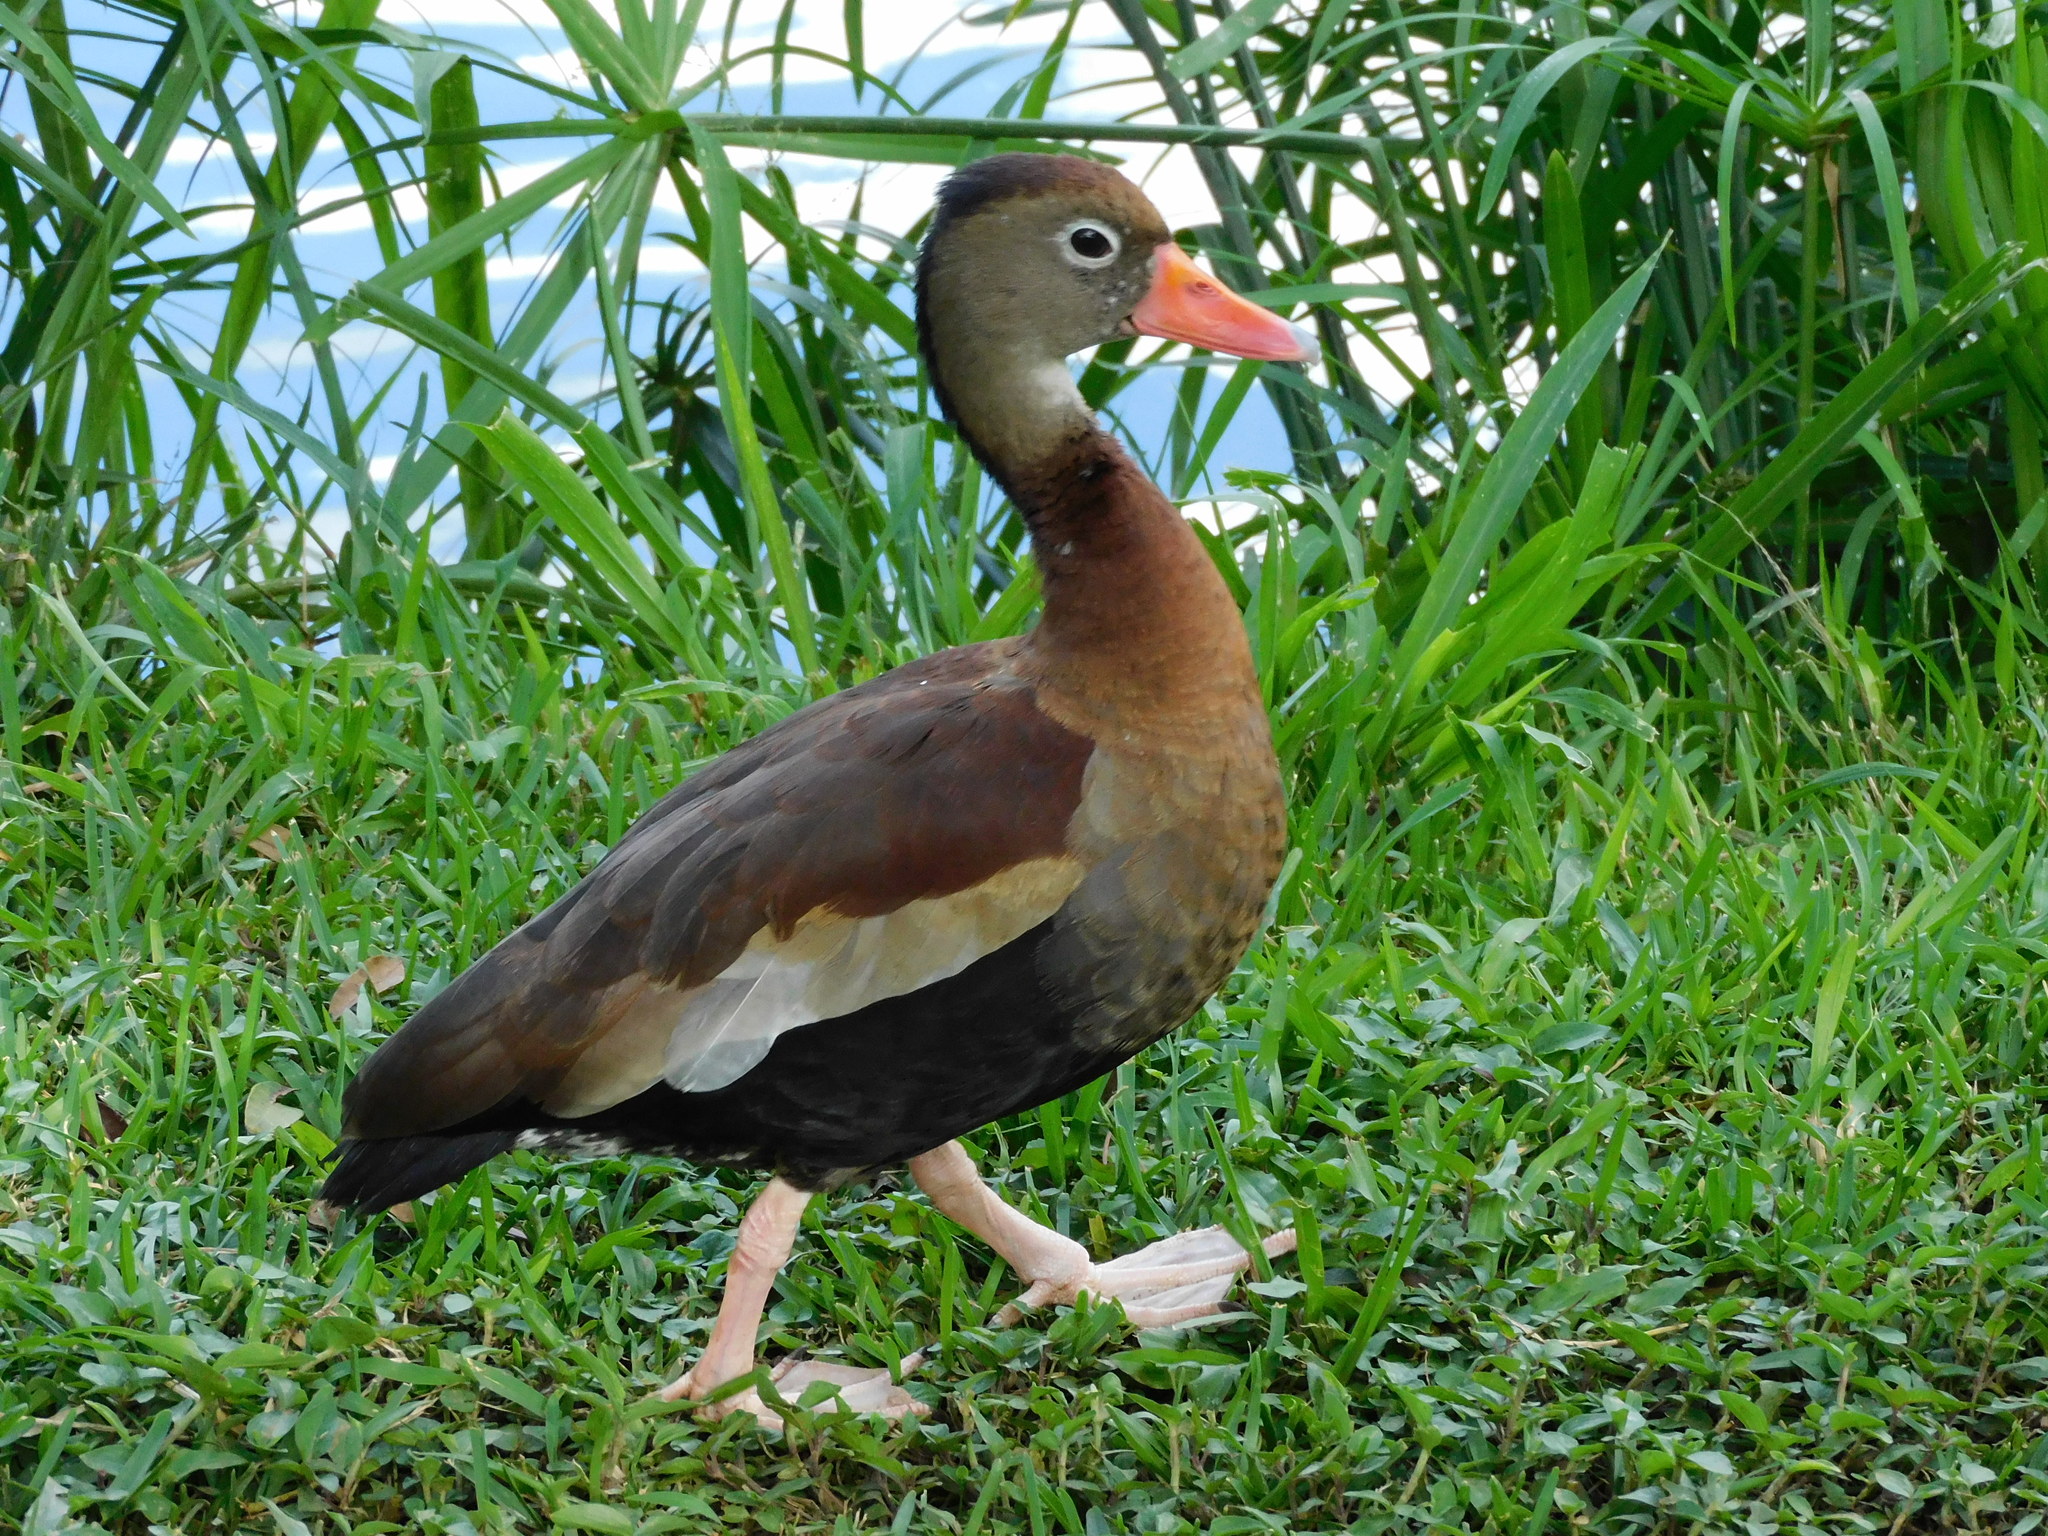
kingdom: Animalia
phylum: Chordata
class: Aves
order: Anseriformes
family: Anatidae
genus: Dendrocygna
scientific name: Dendrocygna autumnalis
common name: Black-bellied whistling duck
